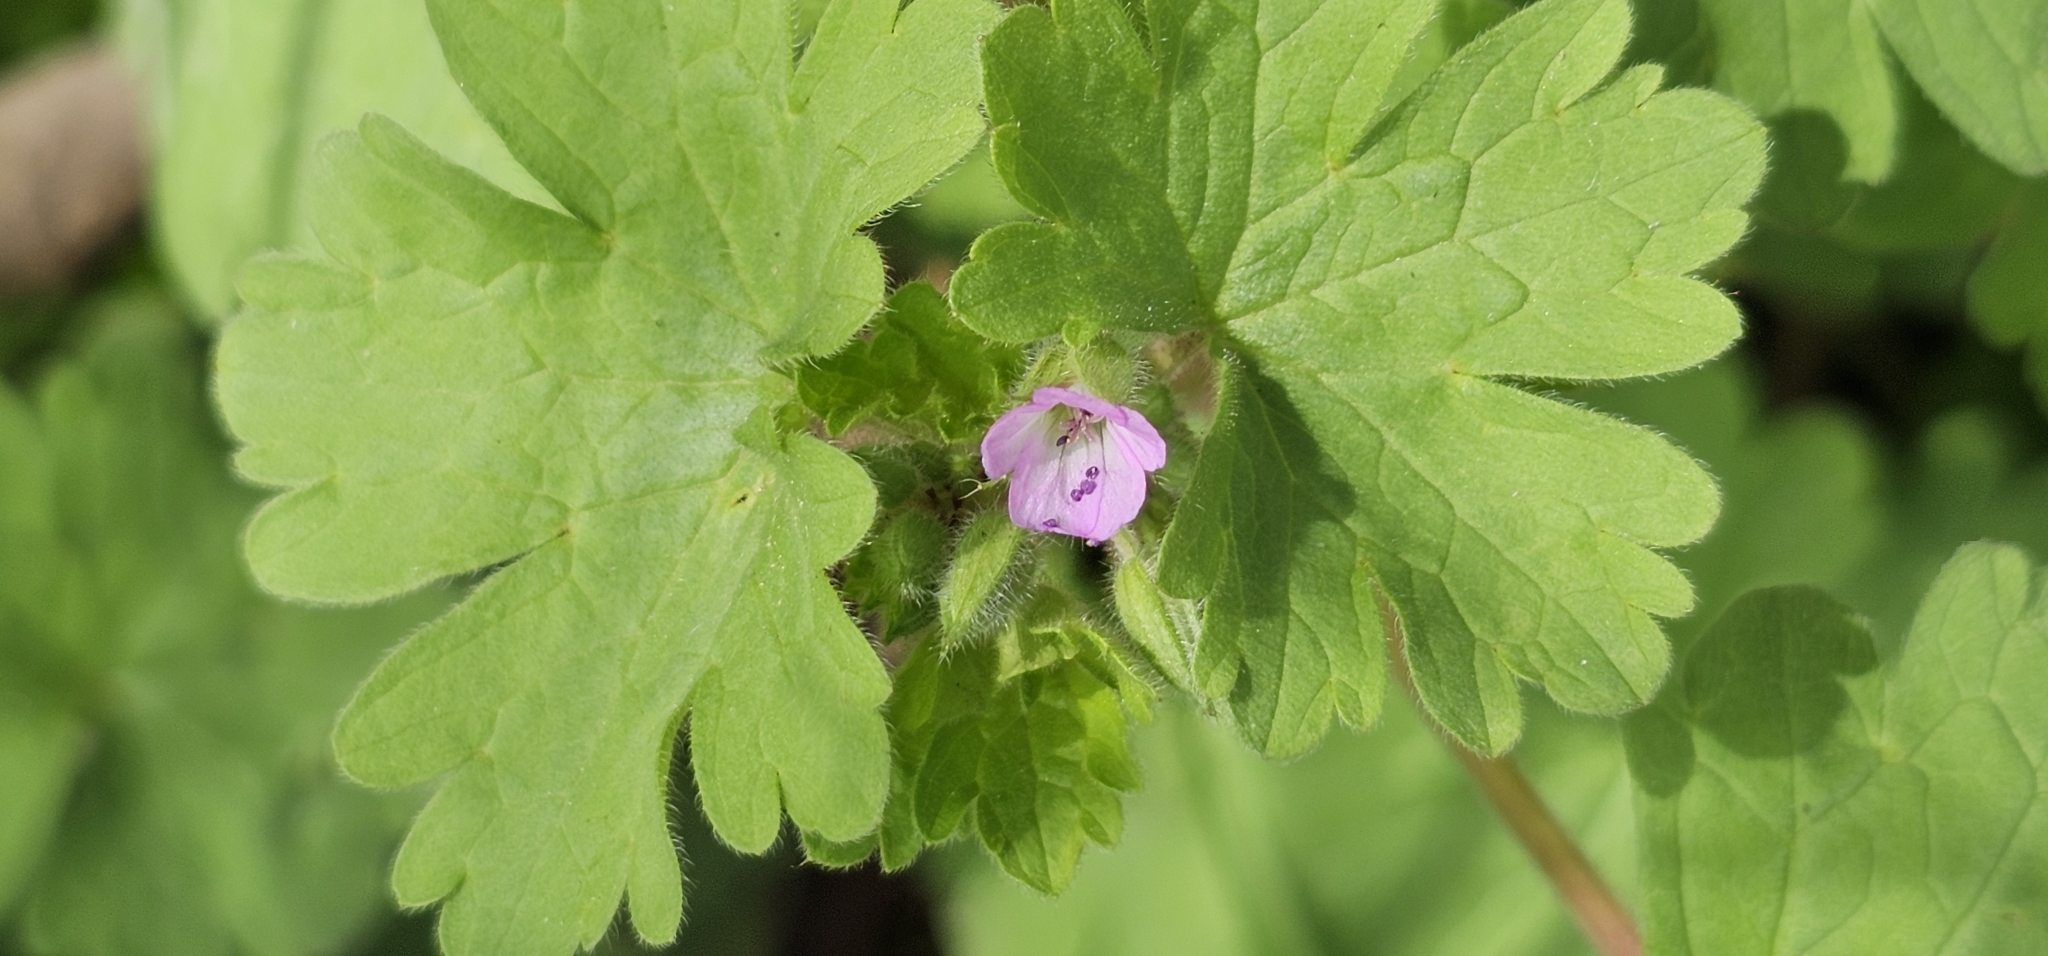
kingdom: Plantae
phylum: Tracheophyta
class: Magnoliopsida
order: Geraniales
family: Geraniaceae
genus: Geranium
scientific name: Geranium rotundifolium
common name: Round-leaved crane's-bill
